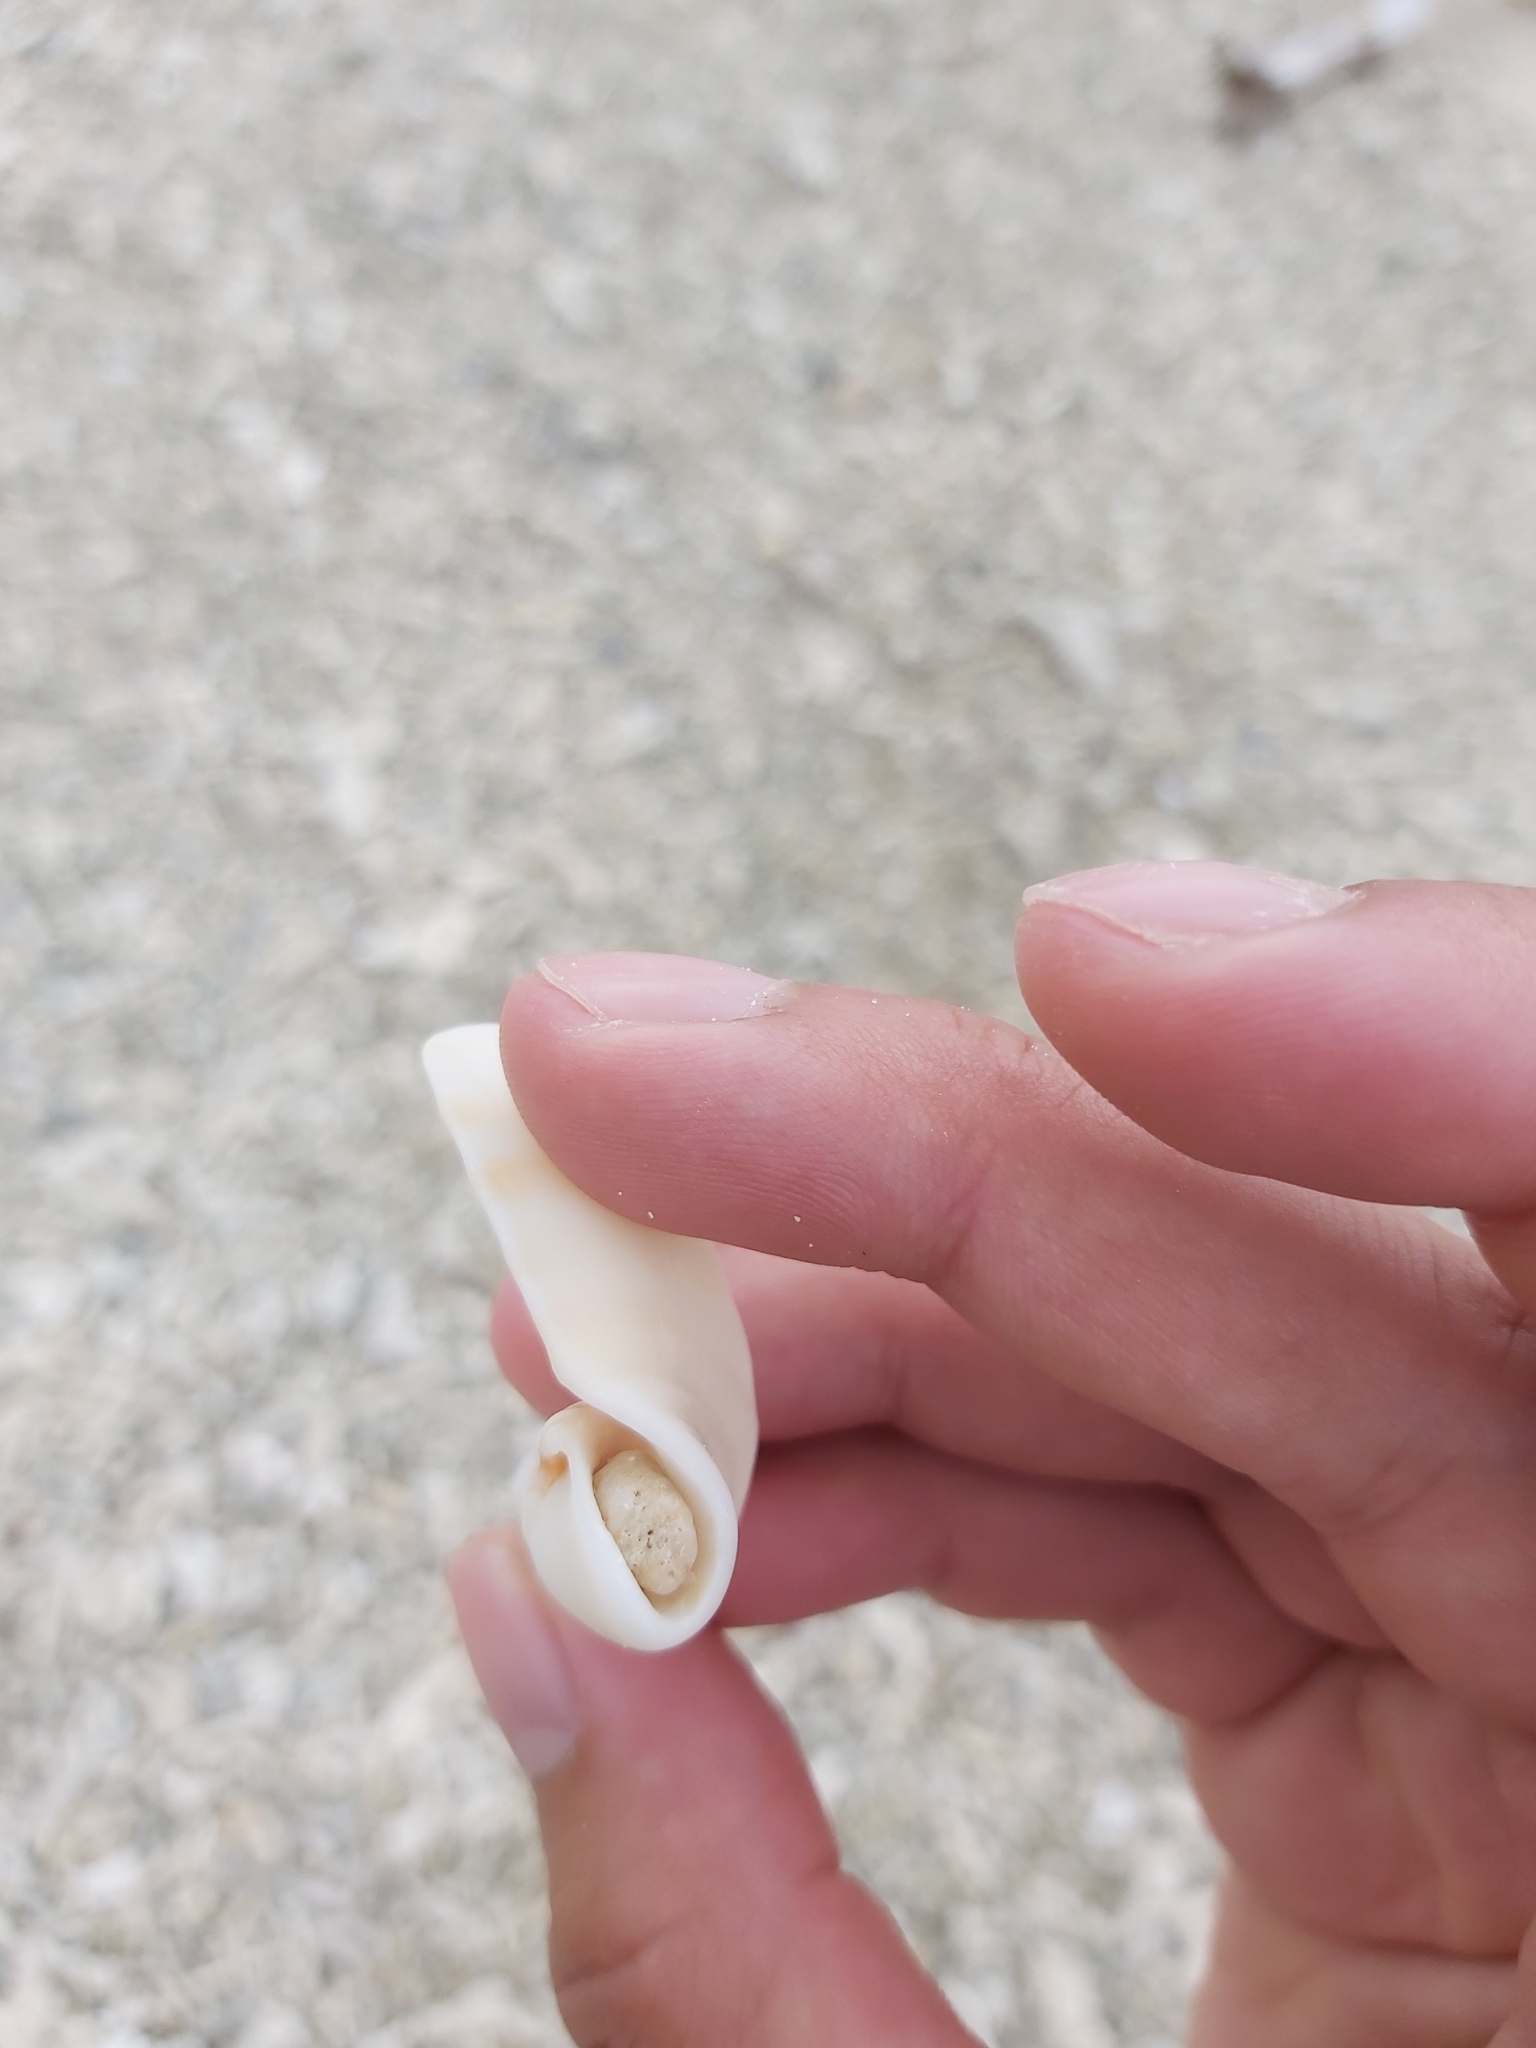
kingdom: Animalia
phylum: Mollusca
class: Gastropoda
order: Littorinimorpha
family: Charoniidae
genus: Charonia
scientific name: Charonia tritonis
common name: Pacific triton
